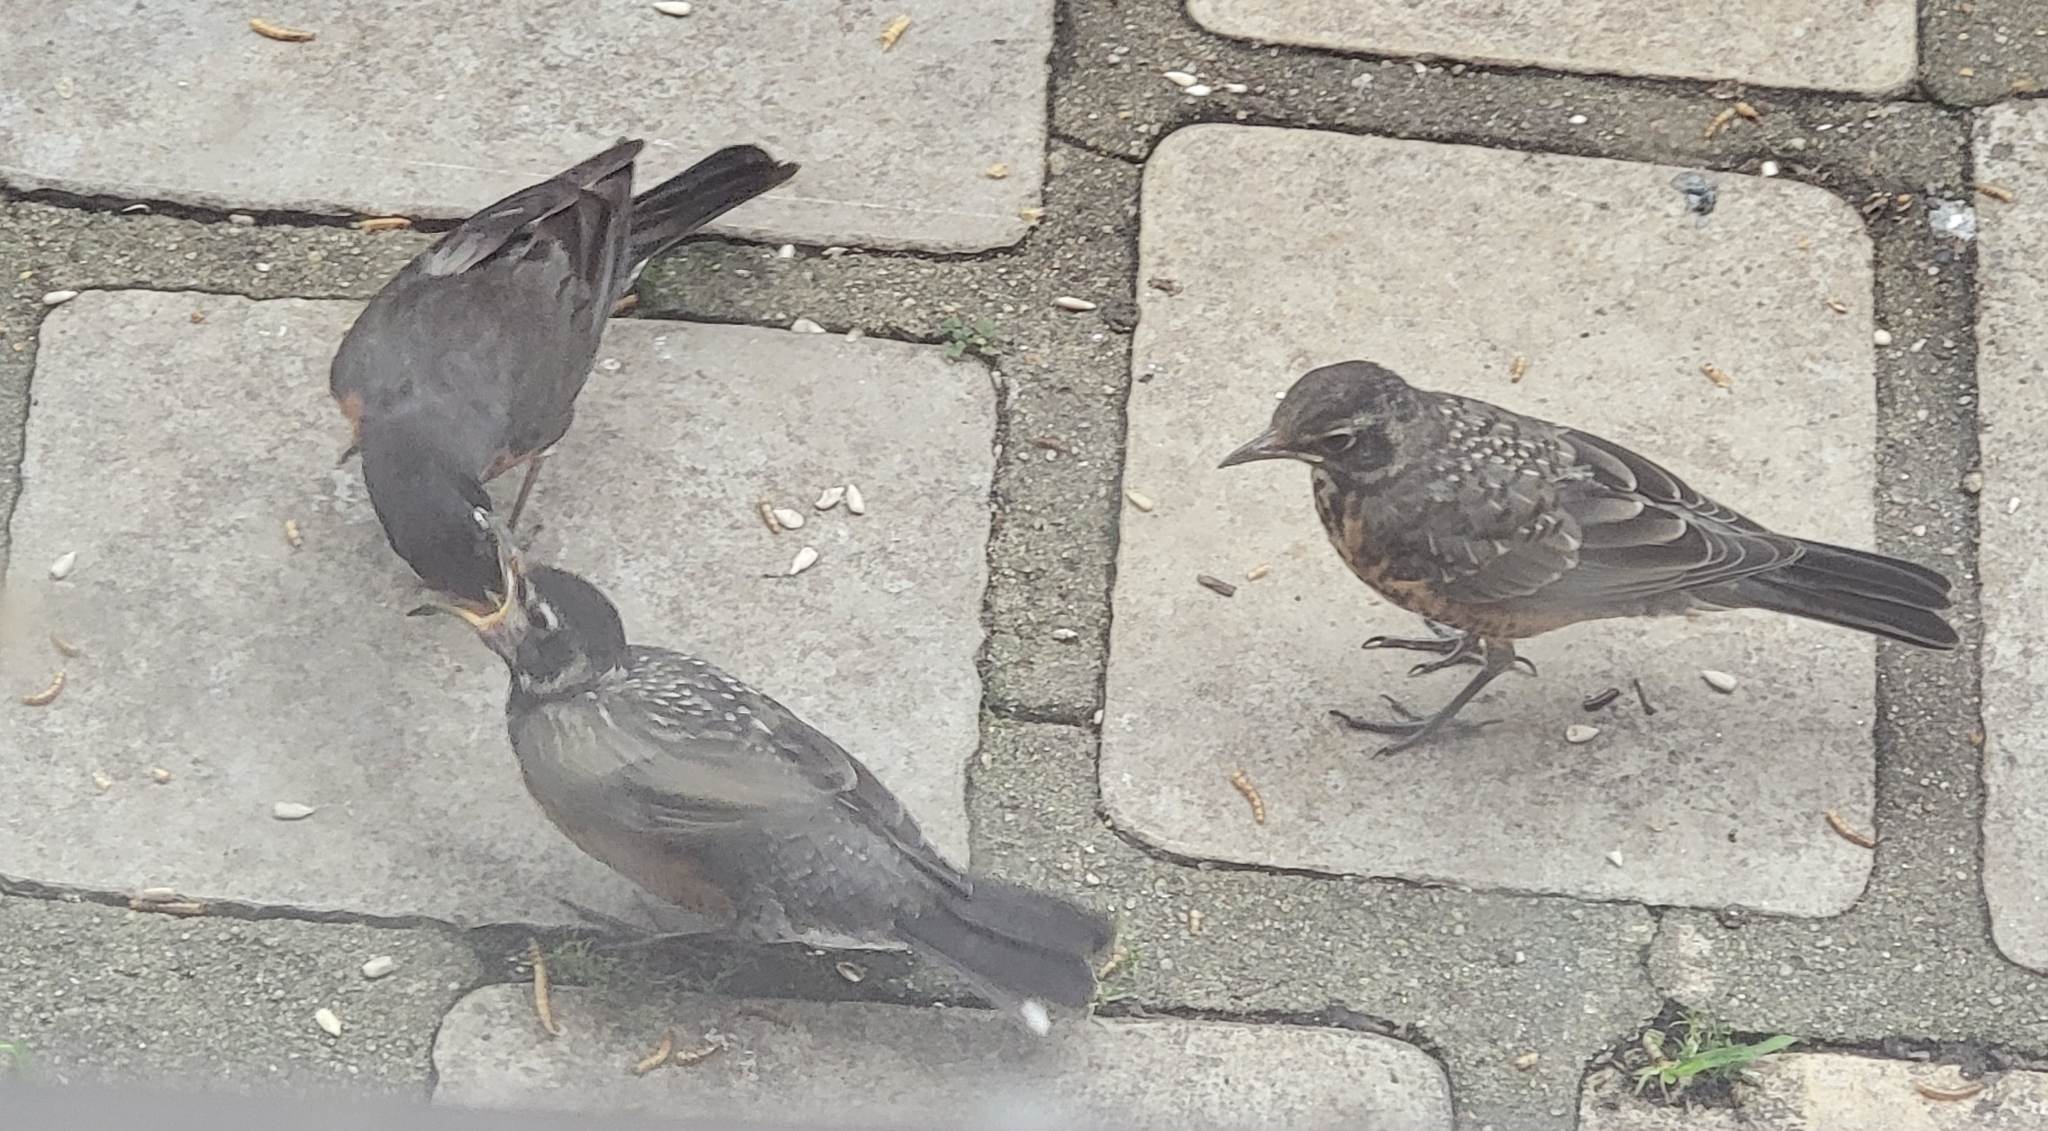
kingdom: Animalia
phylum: Chordata
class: Aves
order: Passeriformes
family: Turdidae
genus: Turdus
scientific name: Turdus migratorius
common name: American robin
